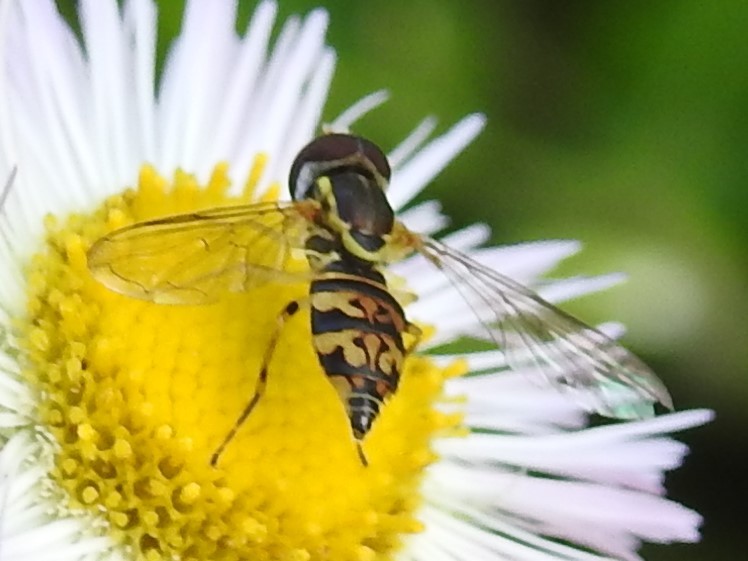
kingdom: Animalia
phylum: Arthropoda
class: Insecta
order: Diptera
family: Syrphidae
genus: Toxomerus
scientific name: Toxomerus geminatus
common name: Eastern calligrapher
